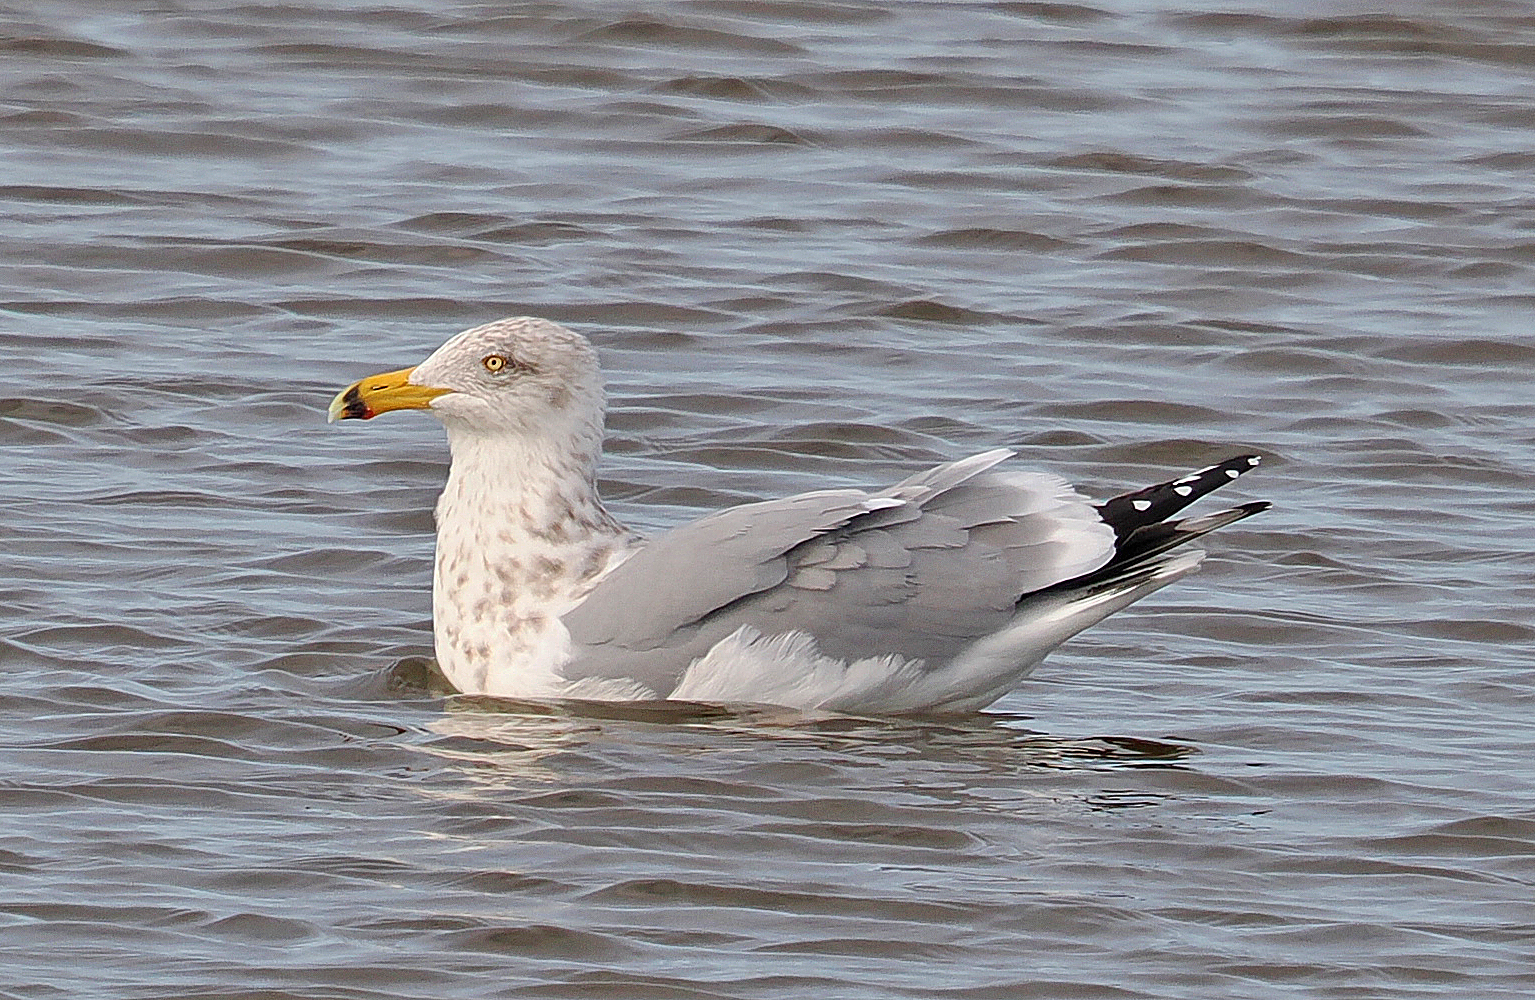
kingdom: Animalia
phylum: Chordata
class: Aves
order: Charadriiformes
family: Laridae
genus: Larus
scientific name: Larus argentatus
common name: Herring gull
